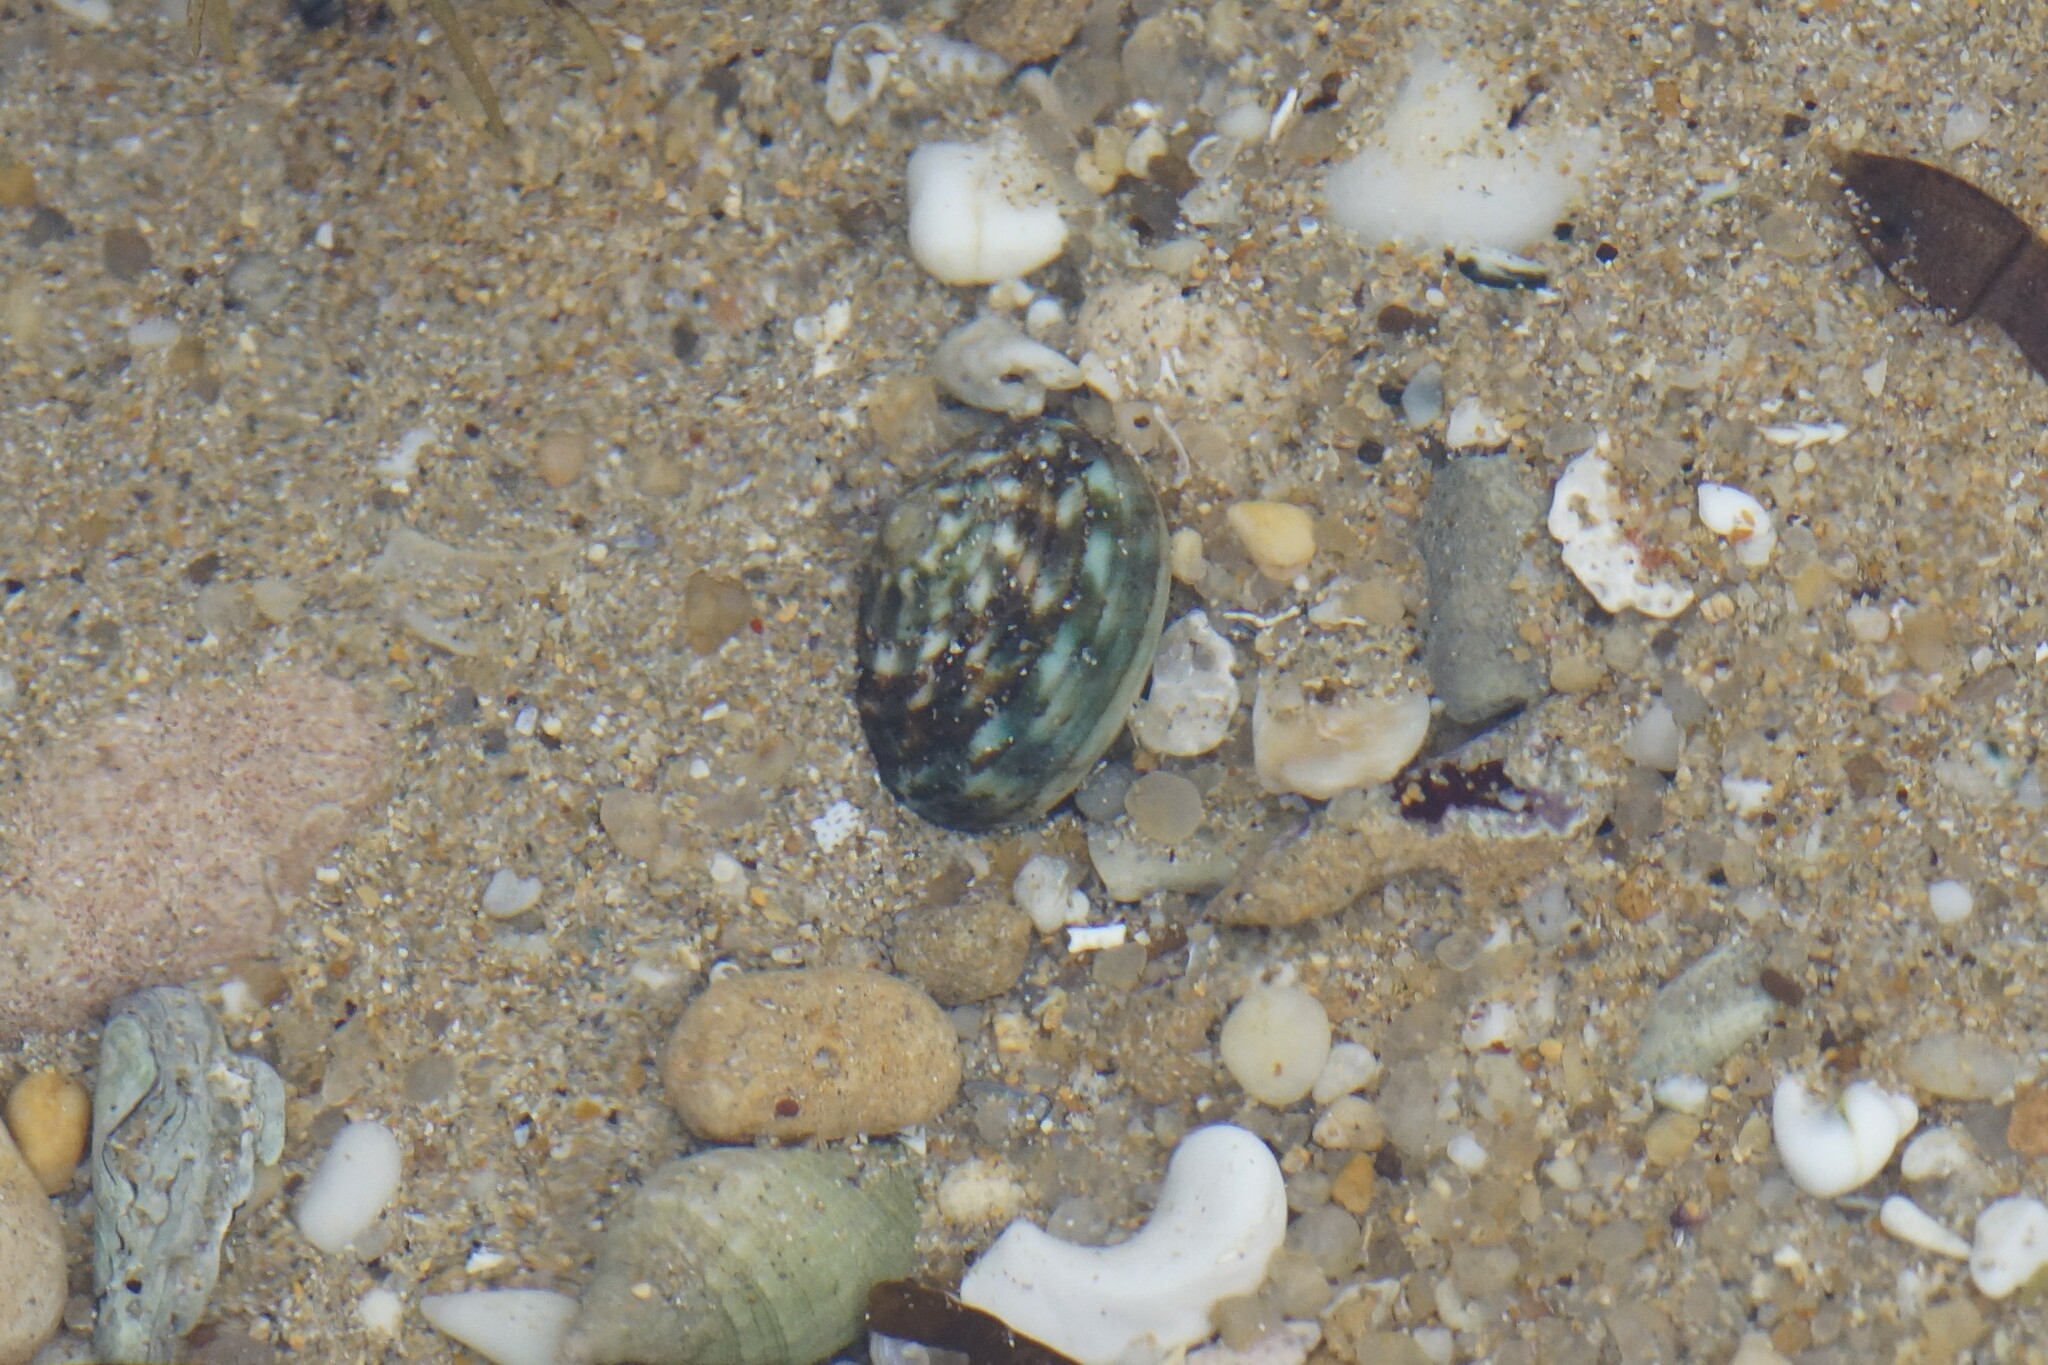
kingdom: Animalia
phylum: Mollusca
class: Gastropoda
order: Trochida
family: Turbinidae
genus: Lunella
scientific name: Lunella undulata
